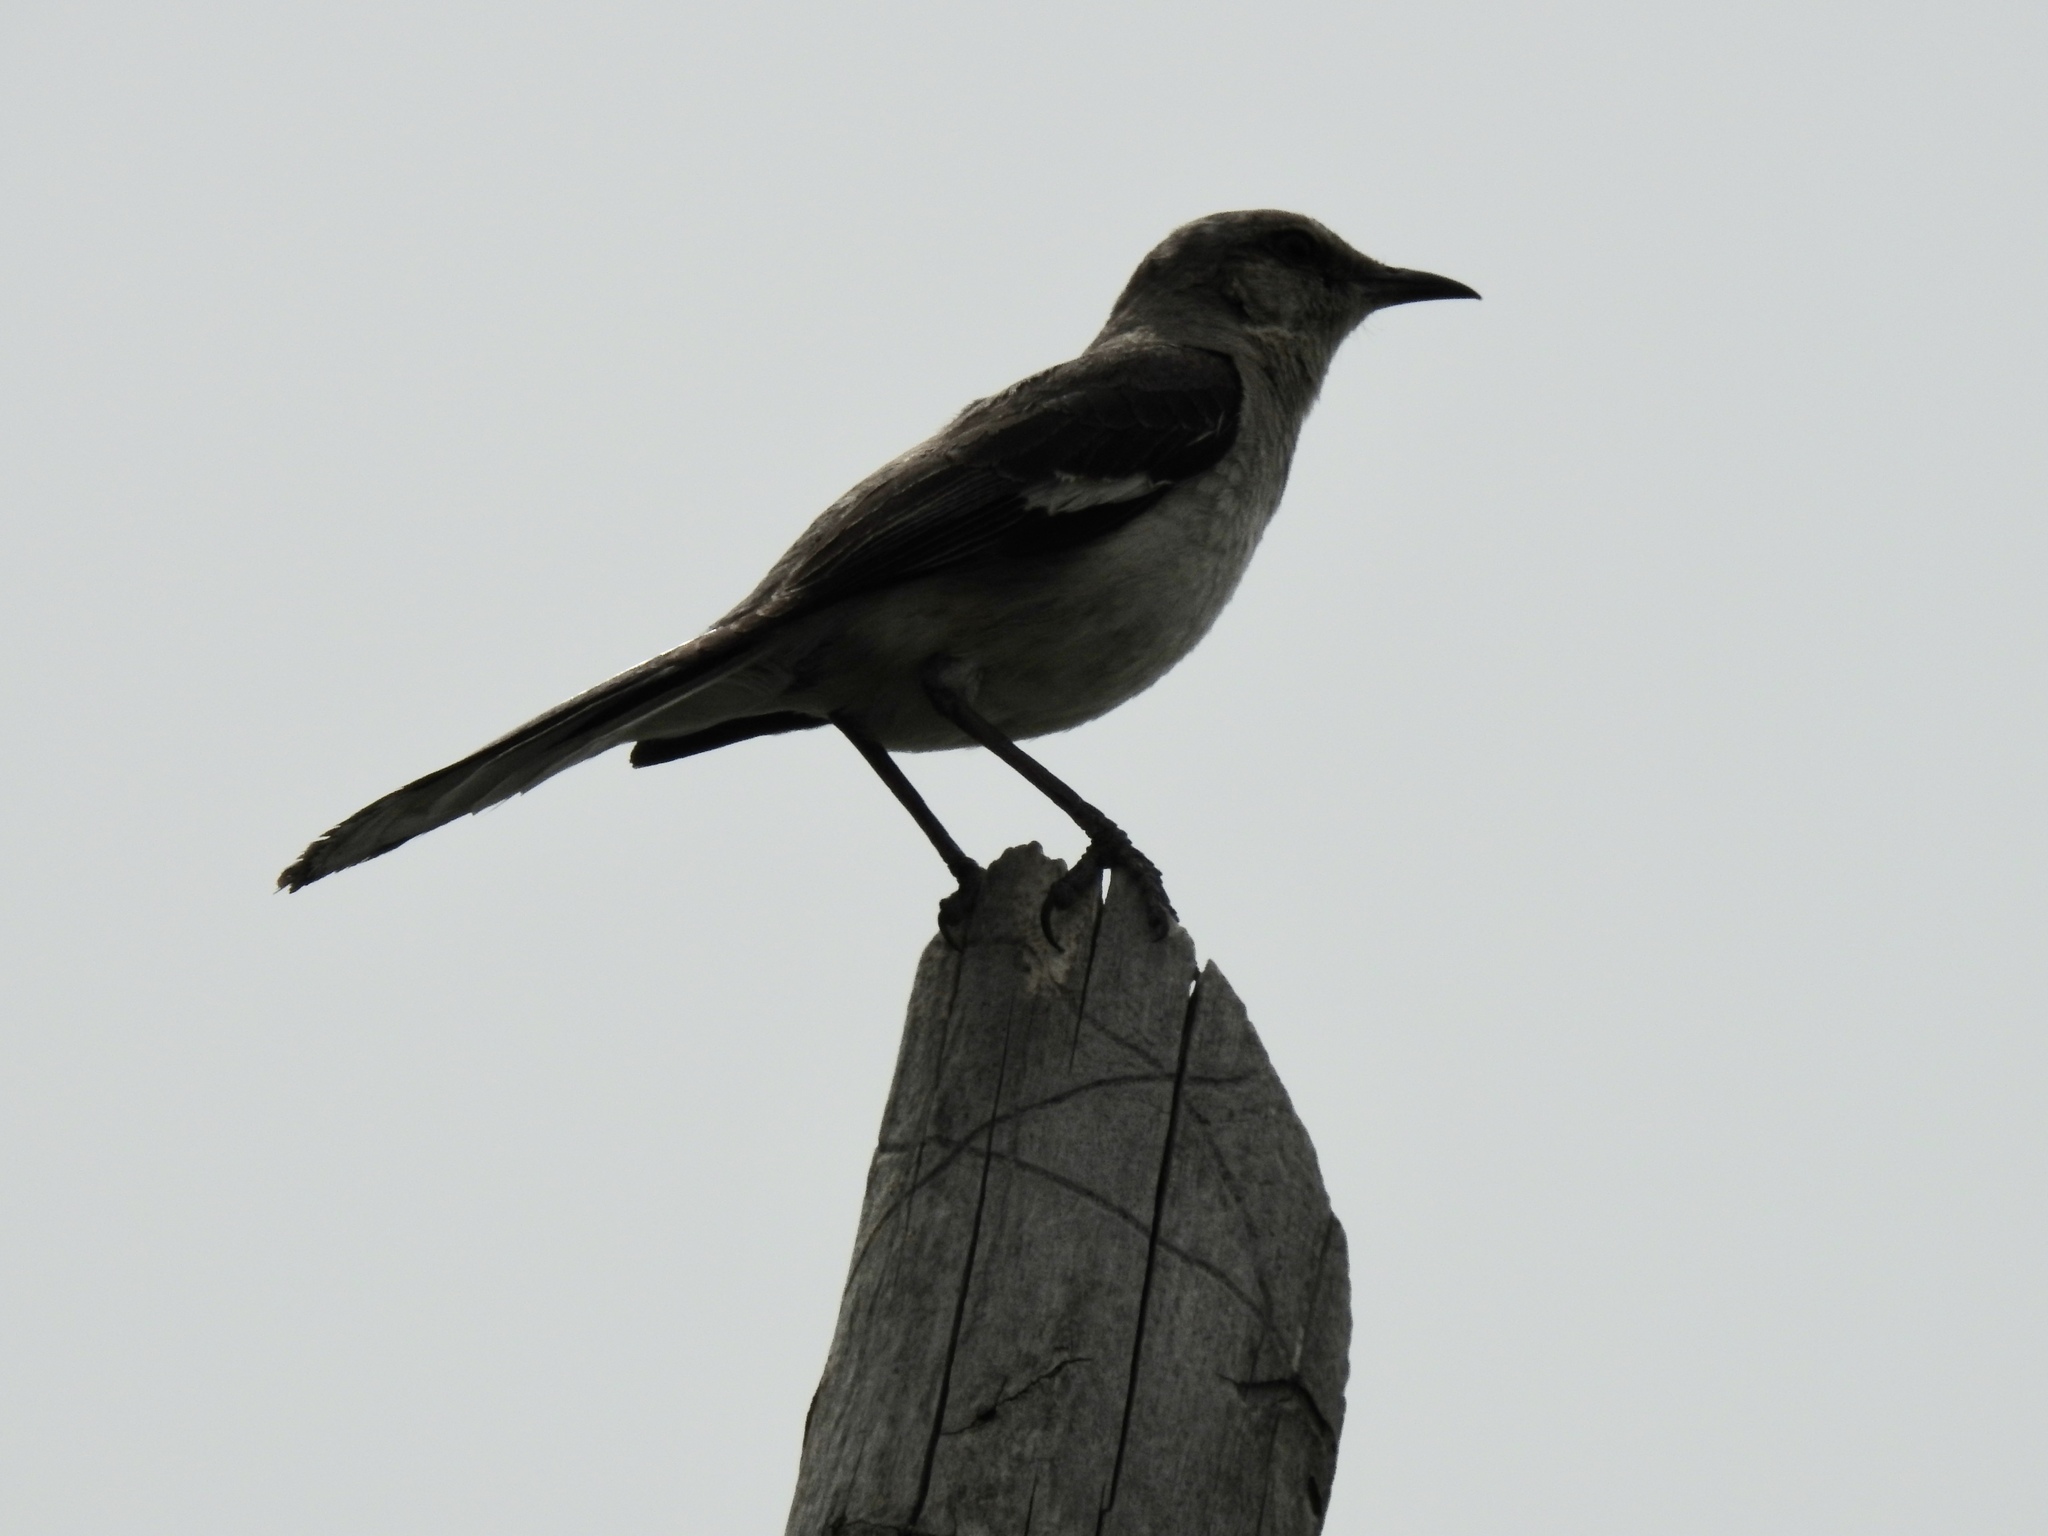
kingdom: Animalia
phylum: Chordata
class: Aves
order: Passeriformes
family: Mimidae
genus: Mimus
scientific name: Mimus polyglottos
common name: Northern mockingbird
